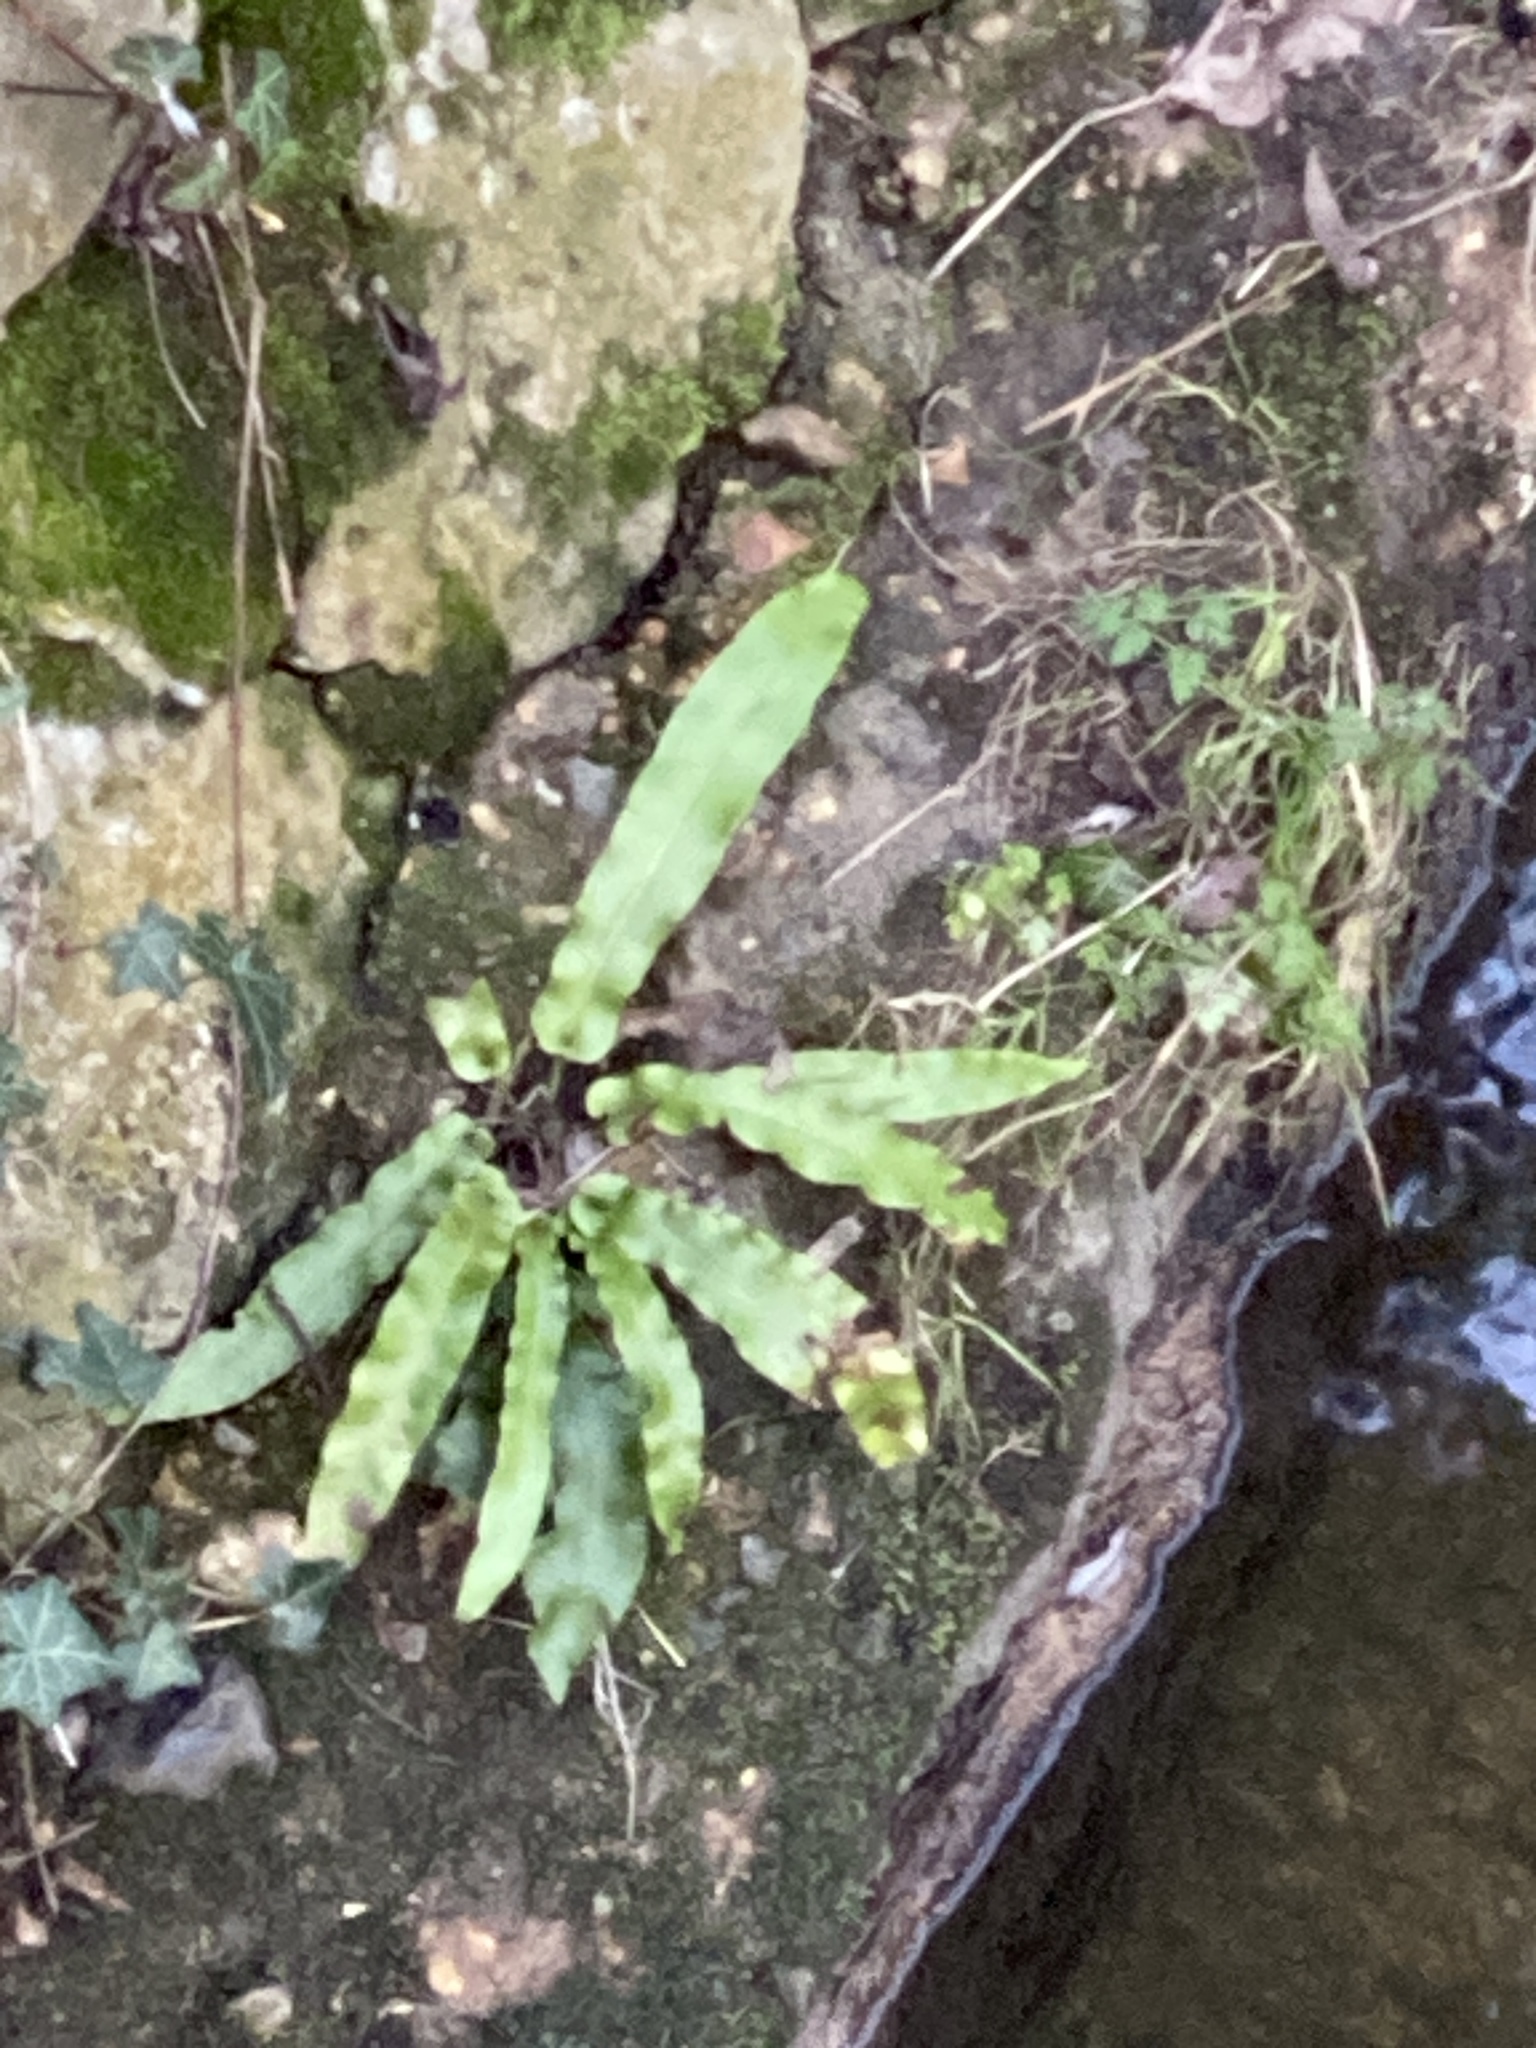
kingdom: Plantae
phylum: Tracheophyta
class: Polypodiopsida
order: Polypodiales
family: Aspleniaceae
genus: Asplenium
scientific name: Asplenium scolopendrium
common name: Hart's-tongue fern
